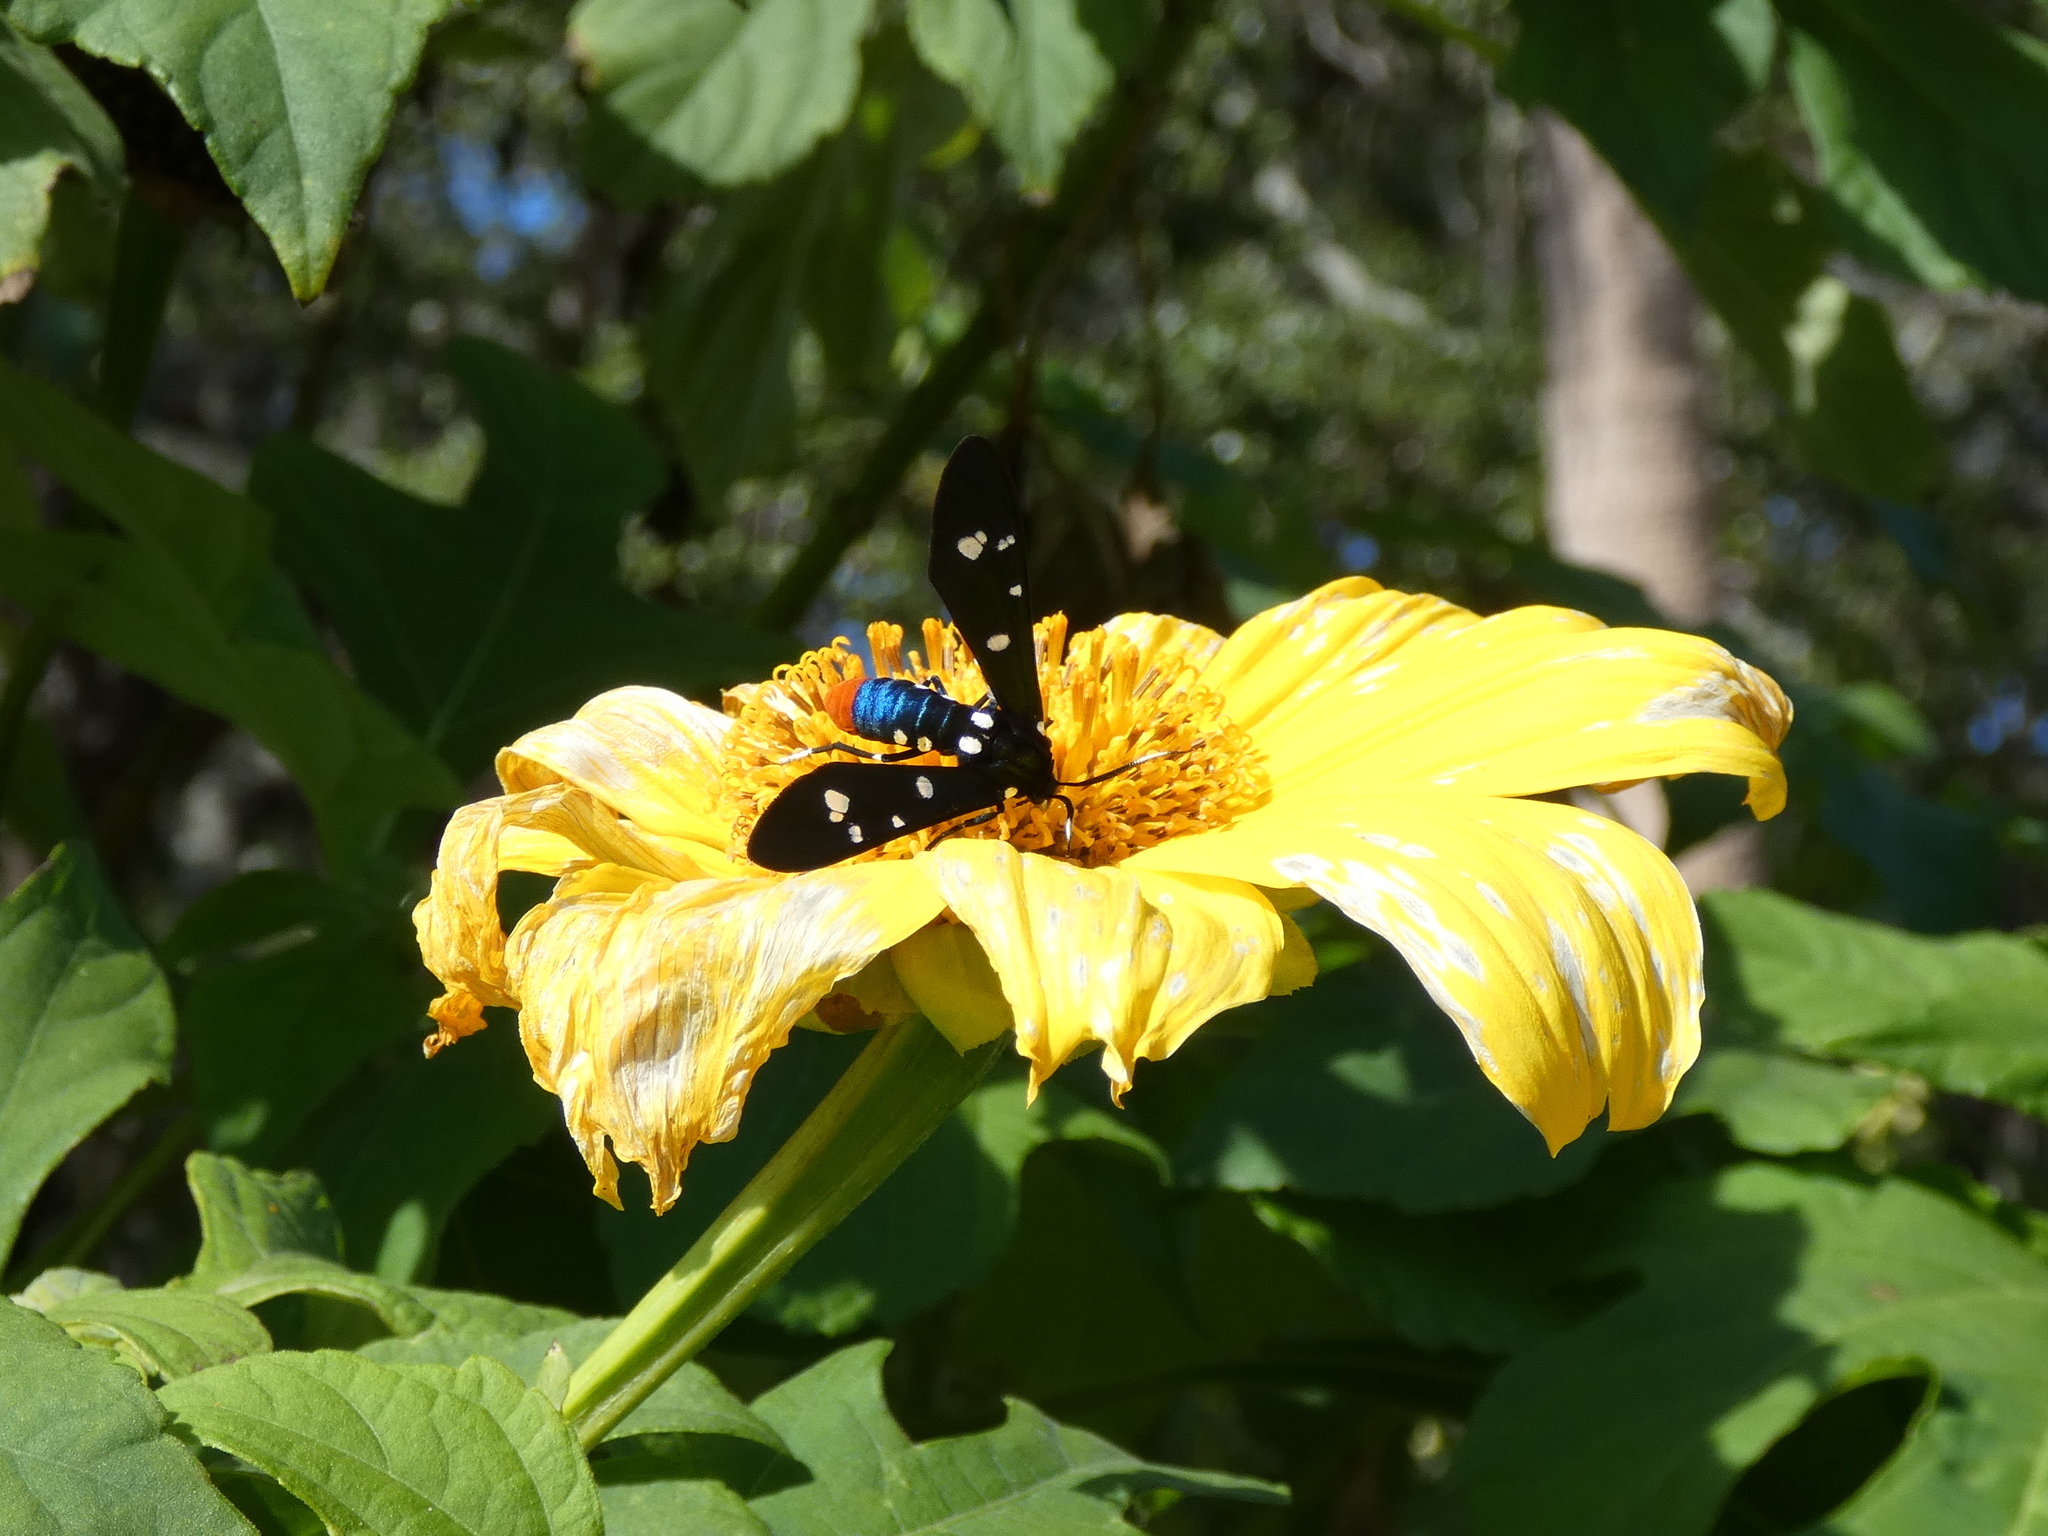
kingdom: Animalia
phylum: Arthropoda
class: Insecta
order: Lepidoptera
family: Erebidae
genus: Syntomeida
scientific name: Syntomeida epilais
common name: Polka-dot wasp moth
